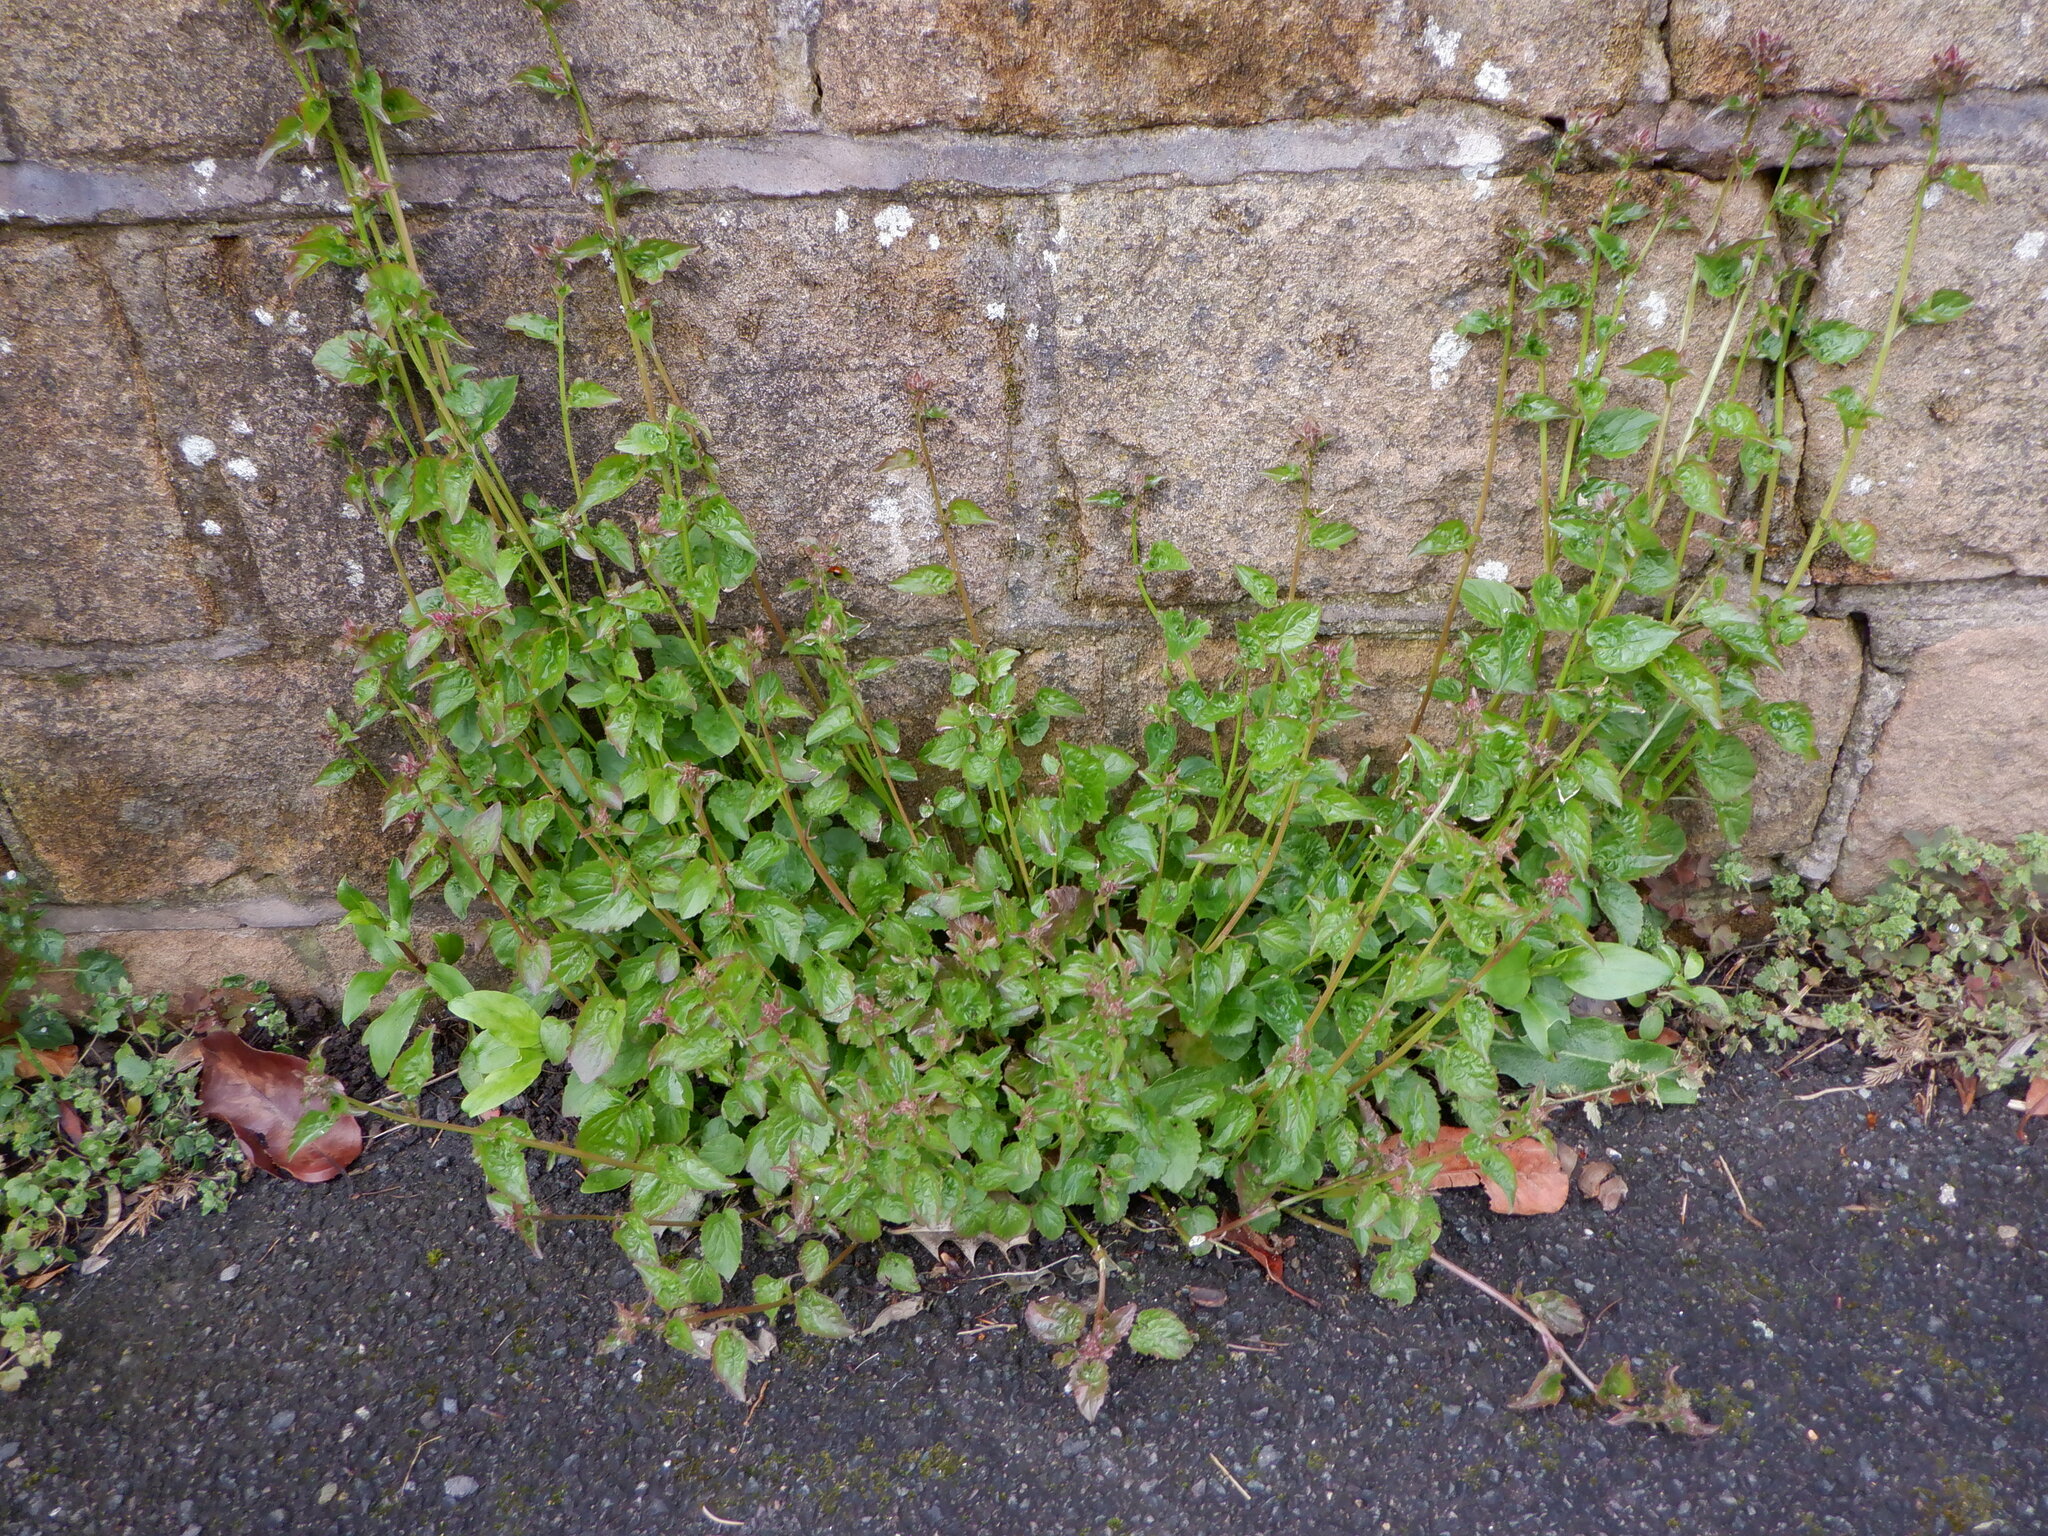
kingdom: Plantae
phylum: Tracheophyta
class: Magnoliopsida
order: Asterales
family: Campanulaceae
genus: Campanula
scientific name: Campanula poscharskyana
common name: Trailing bellflower
